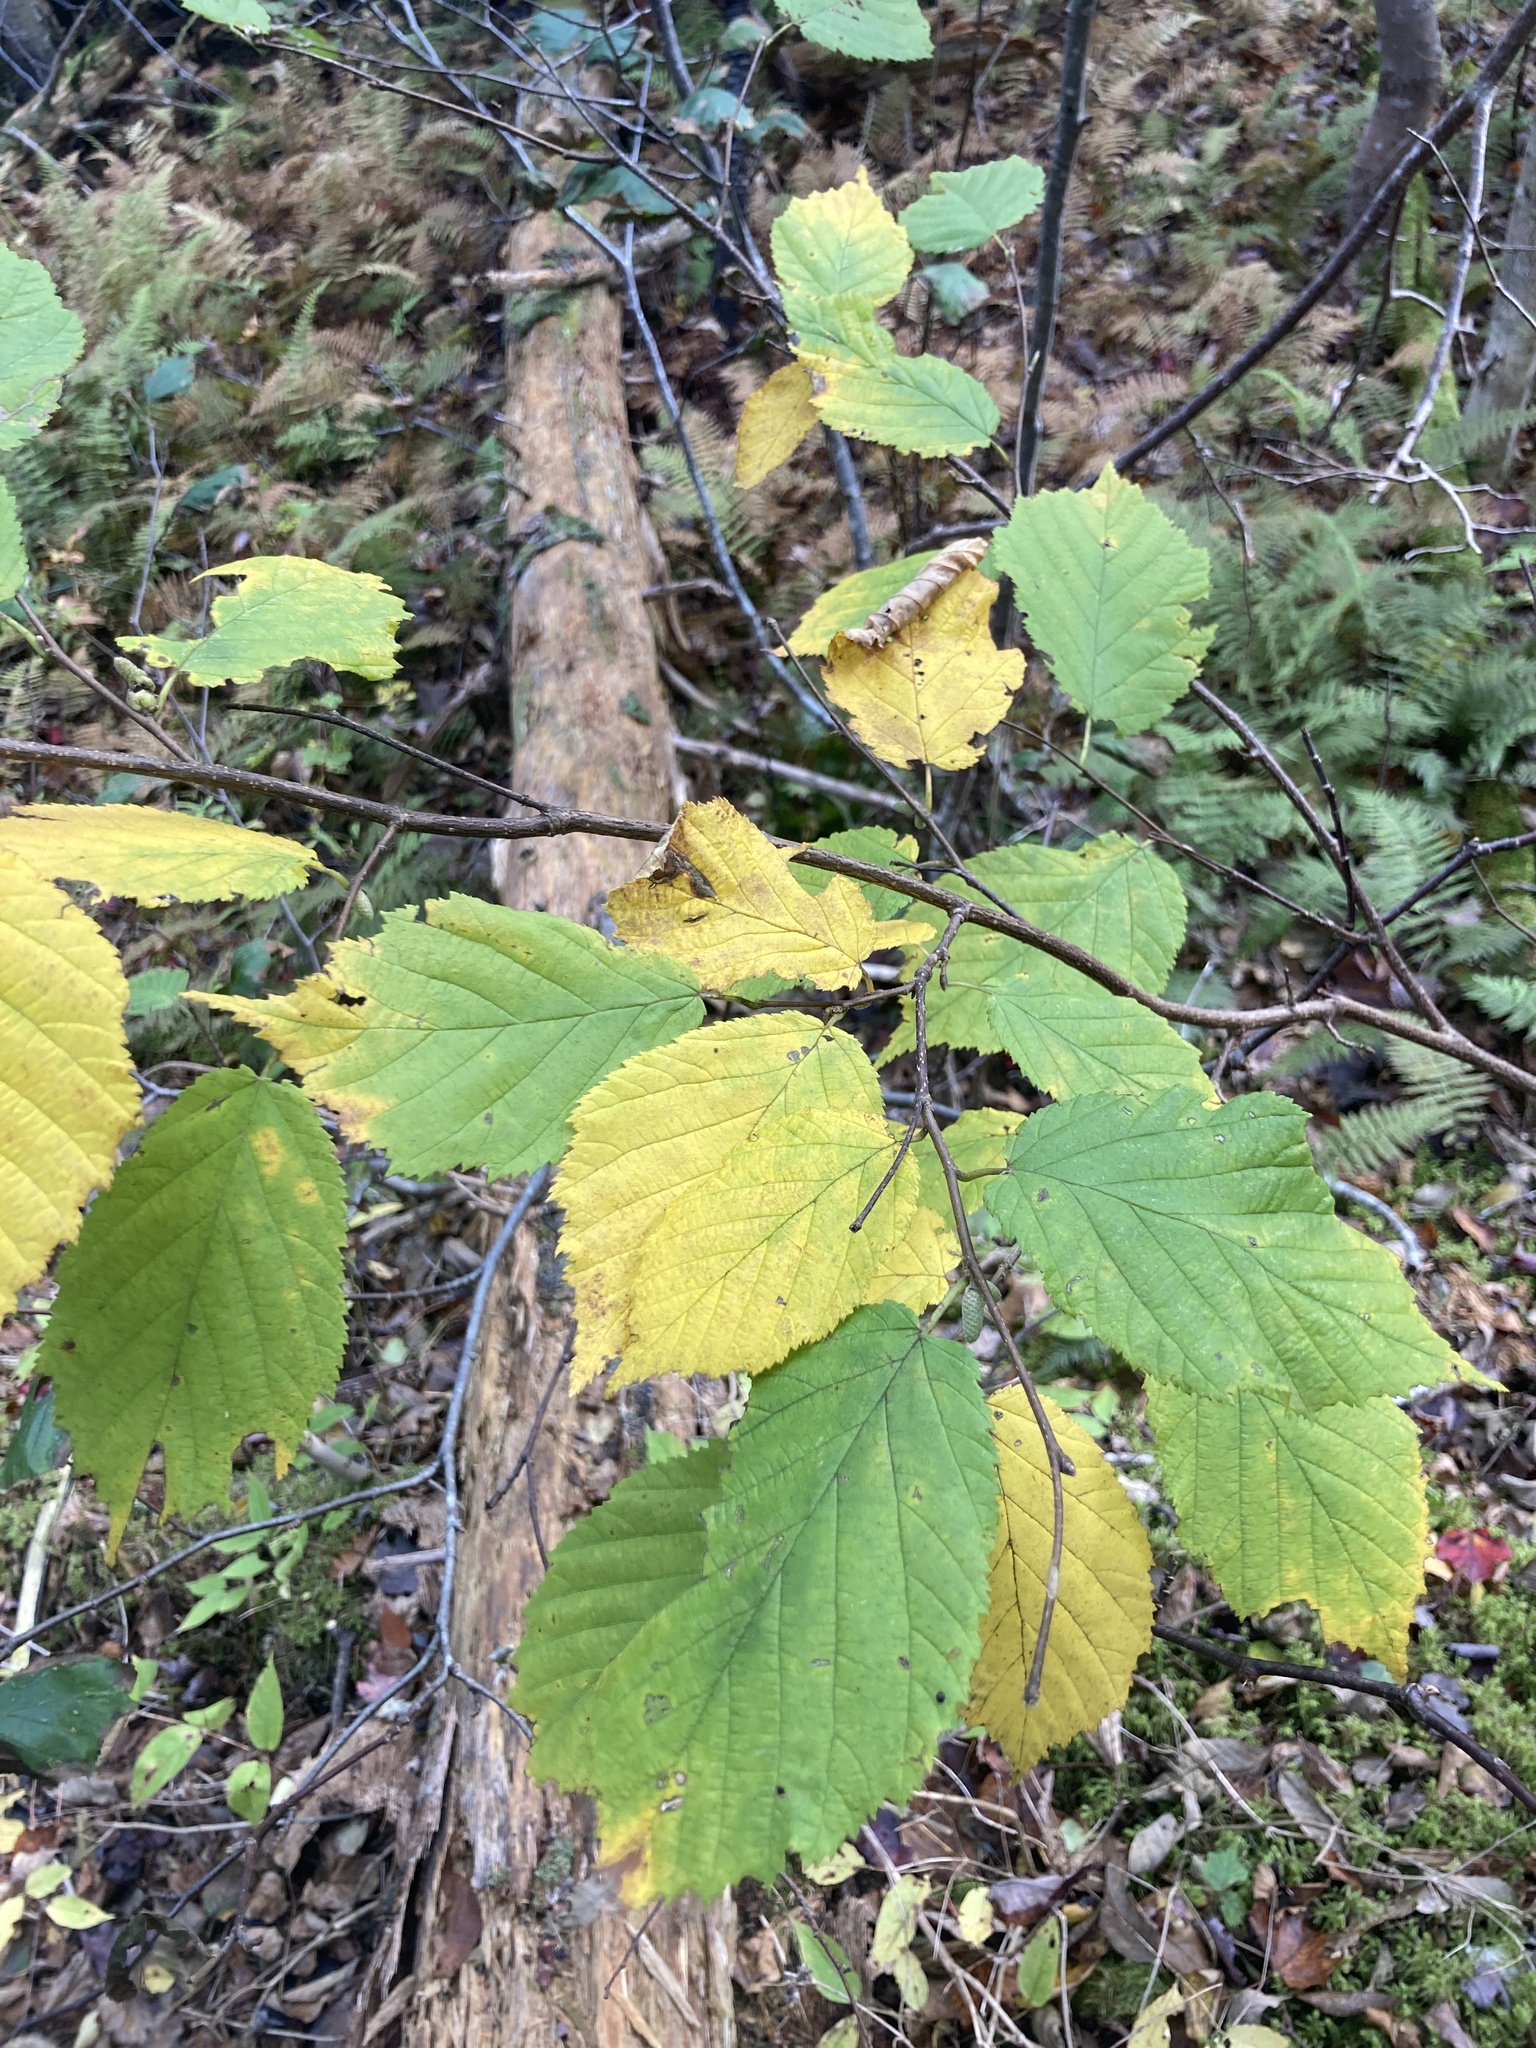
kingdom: Plantae
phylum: Tracheophyta
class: Magnoliopsida
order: Fagales
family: Betulaceae
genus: Corylus
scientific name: Corylus cornuta
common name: Beaked hazel
